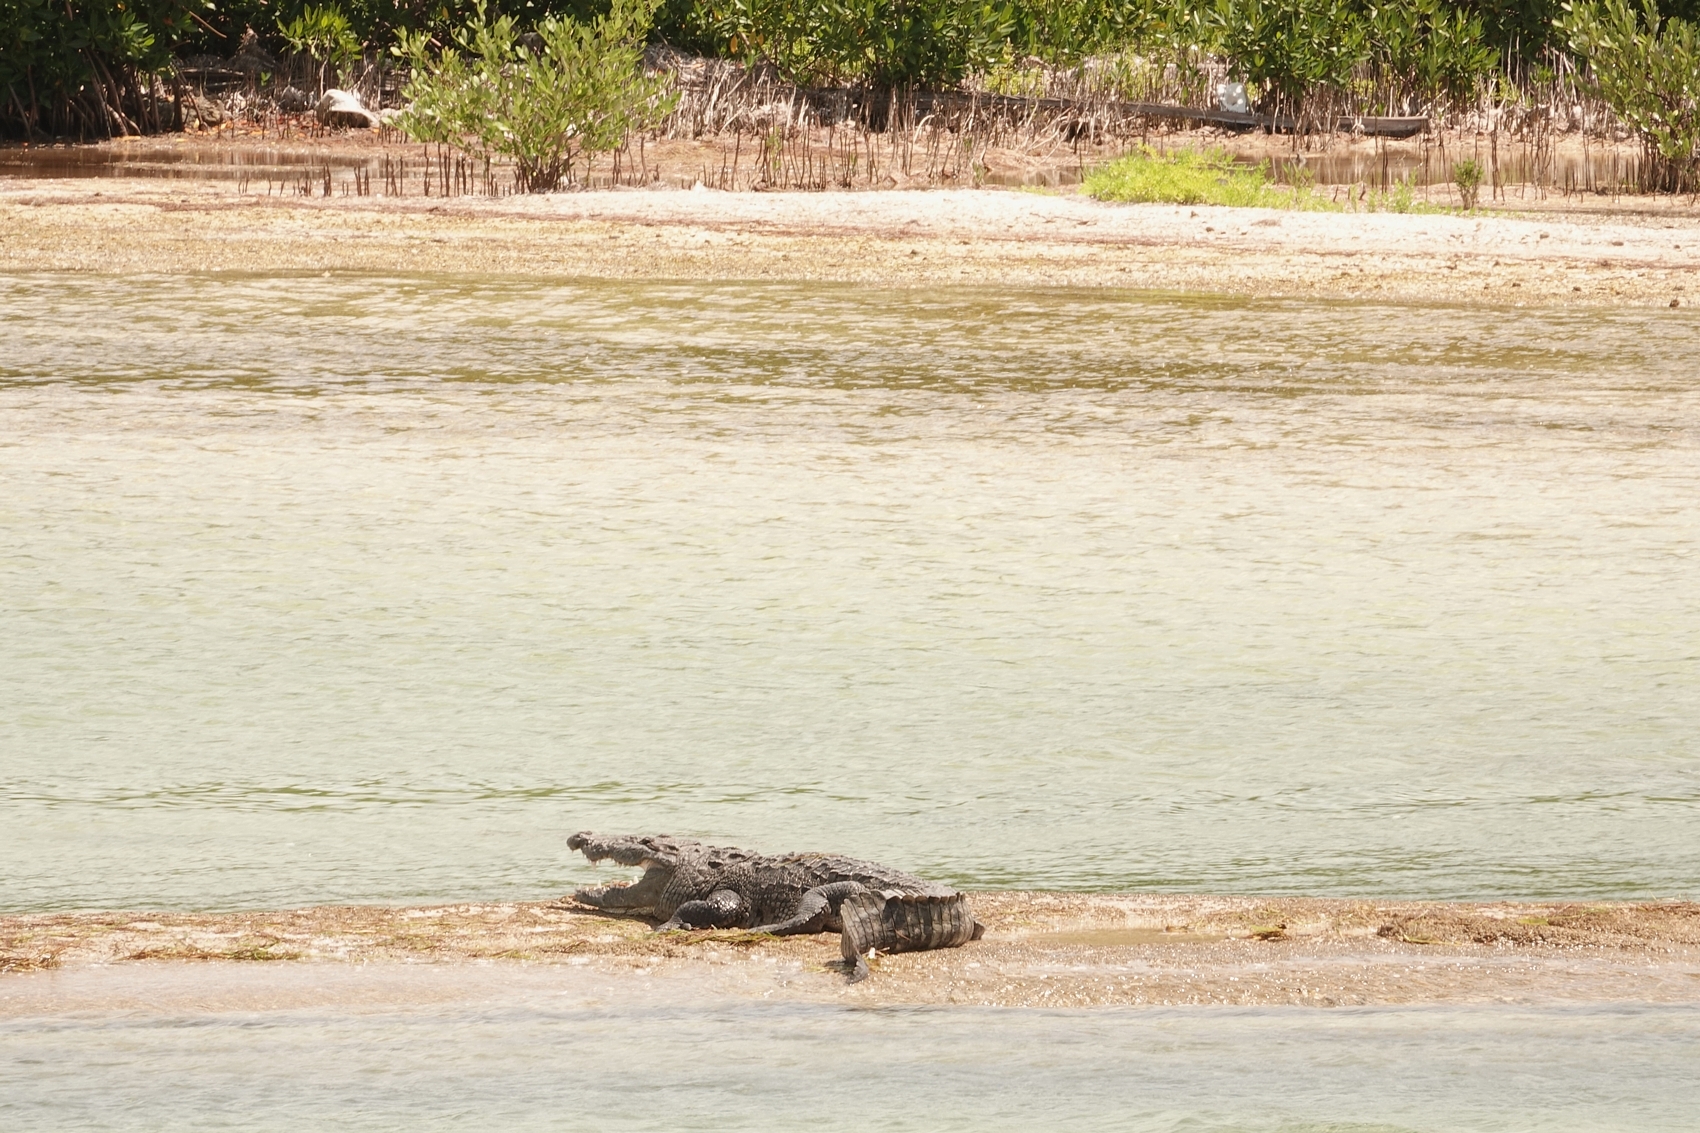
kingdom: Animalia
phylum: Chordata
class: Crocodylia
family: Crocodylidae
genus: Crocodylus
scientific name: Crocodylus moreletii
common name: Morelet's crocodile
